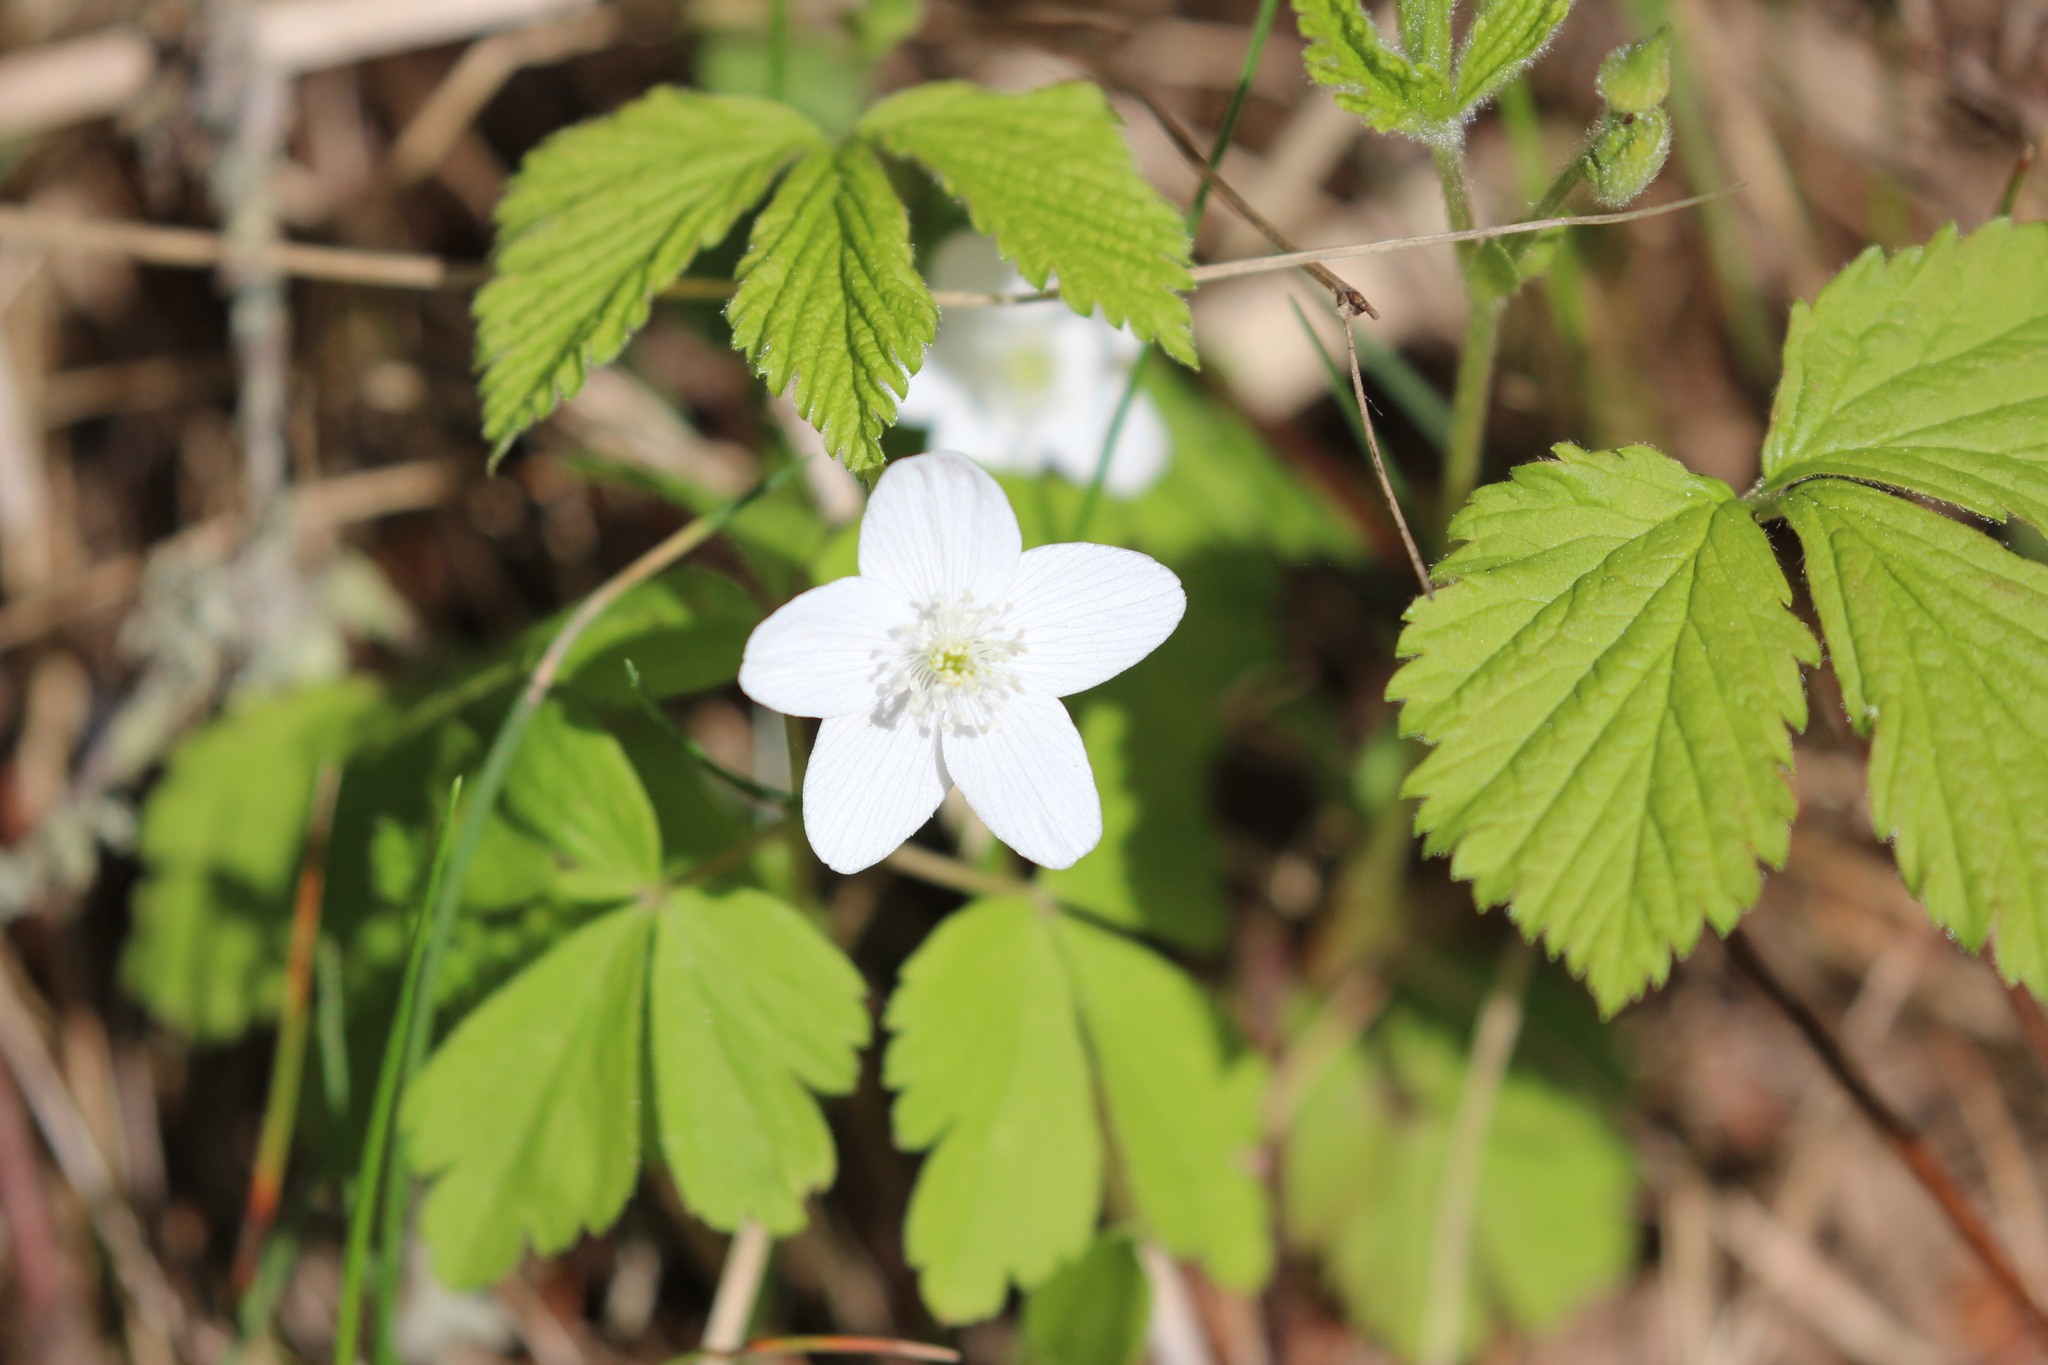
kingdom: Plantae
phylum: Tracheophyta
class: Magnoliopsida
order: Ranunculales
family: Ranunculaceae
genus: Anemone
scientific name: Anemone quinquefolia
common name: Wood anemone
